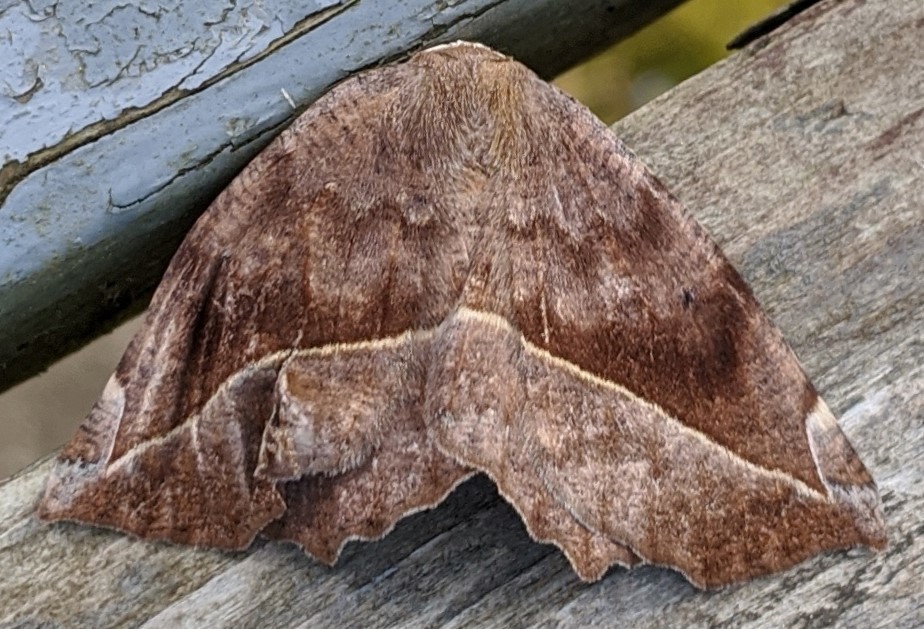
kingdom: Animalia
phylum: Arthropoda
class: Insecta
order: Lepidoptera
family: Geometridae
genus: Eutrapela
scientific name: Eutrapela clemataria
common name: Curved-toothed geometer
